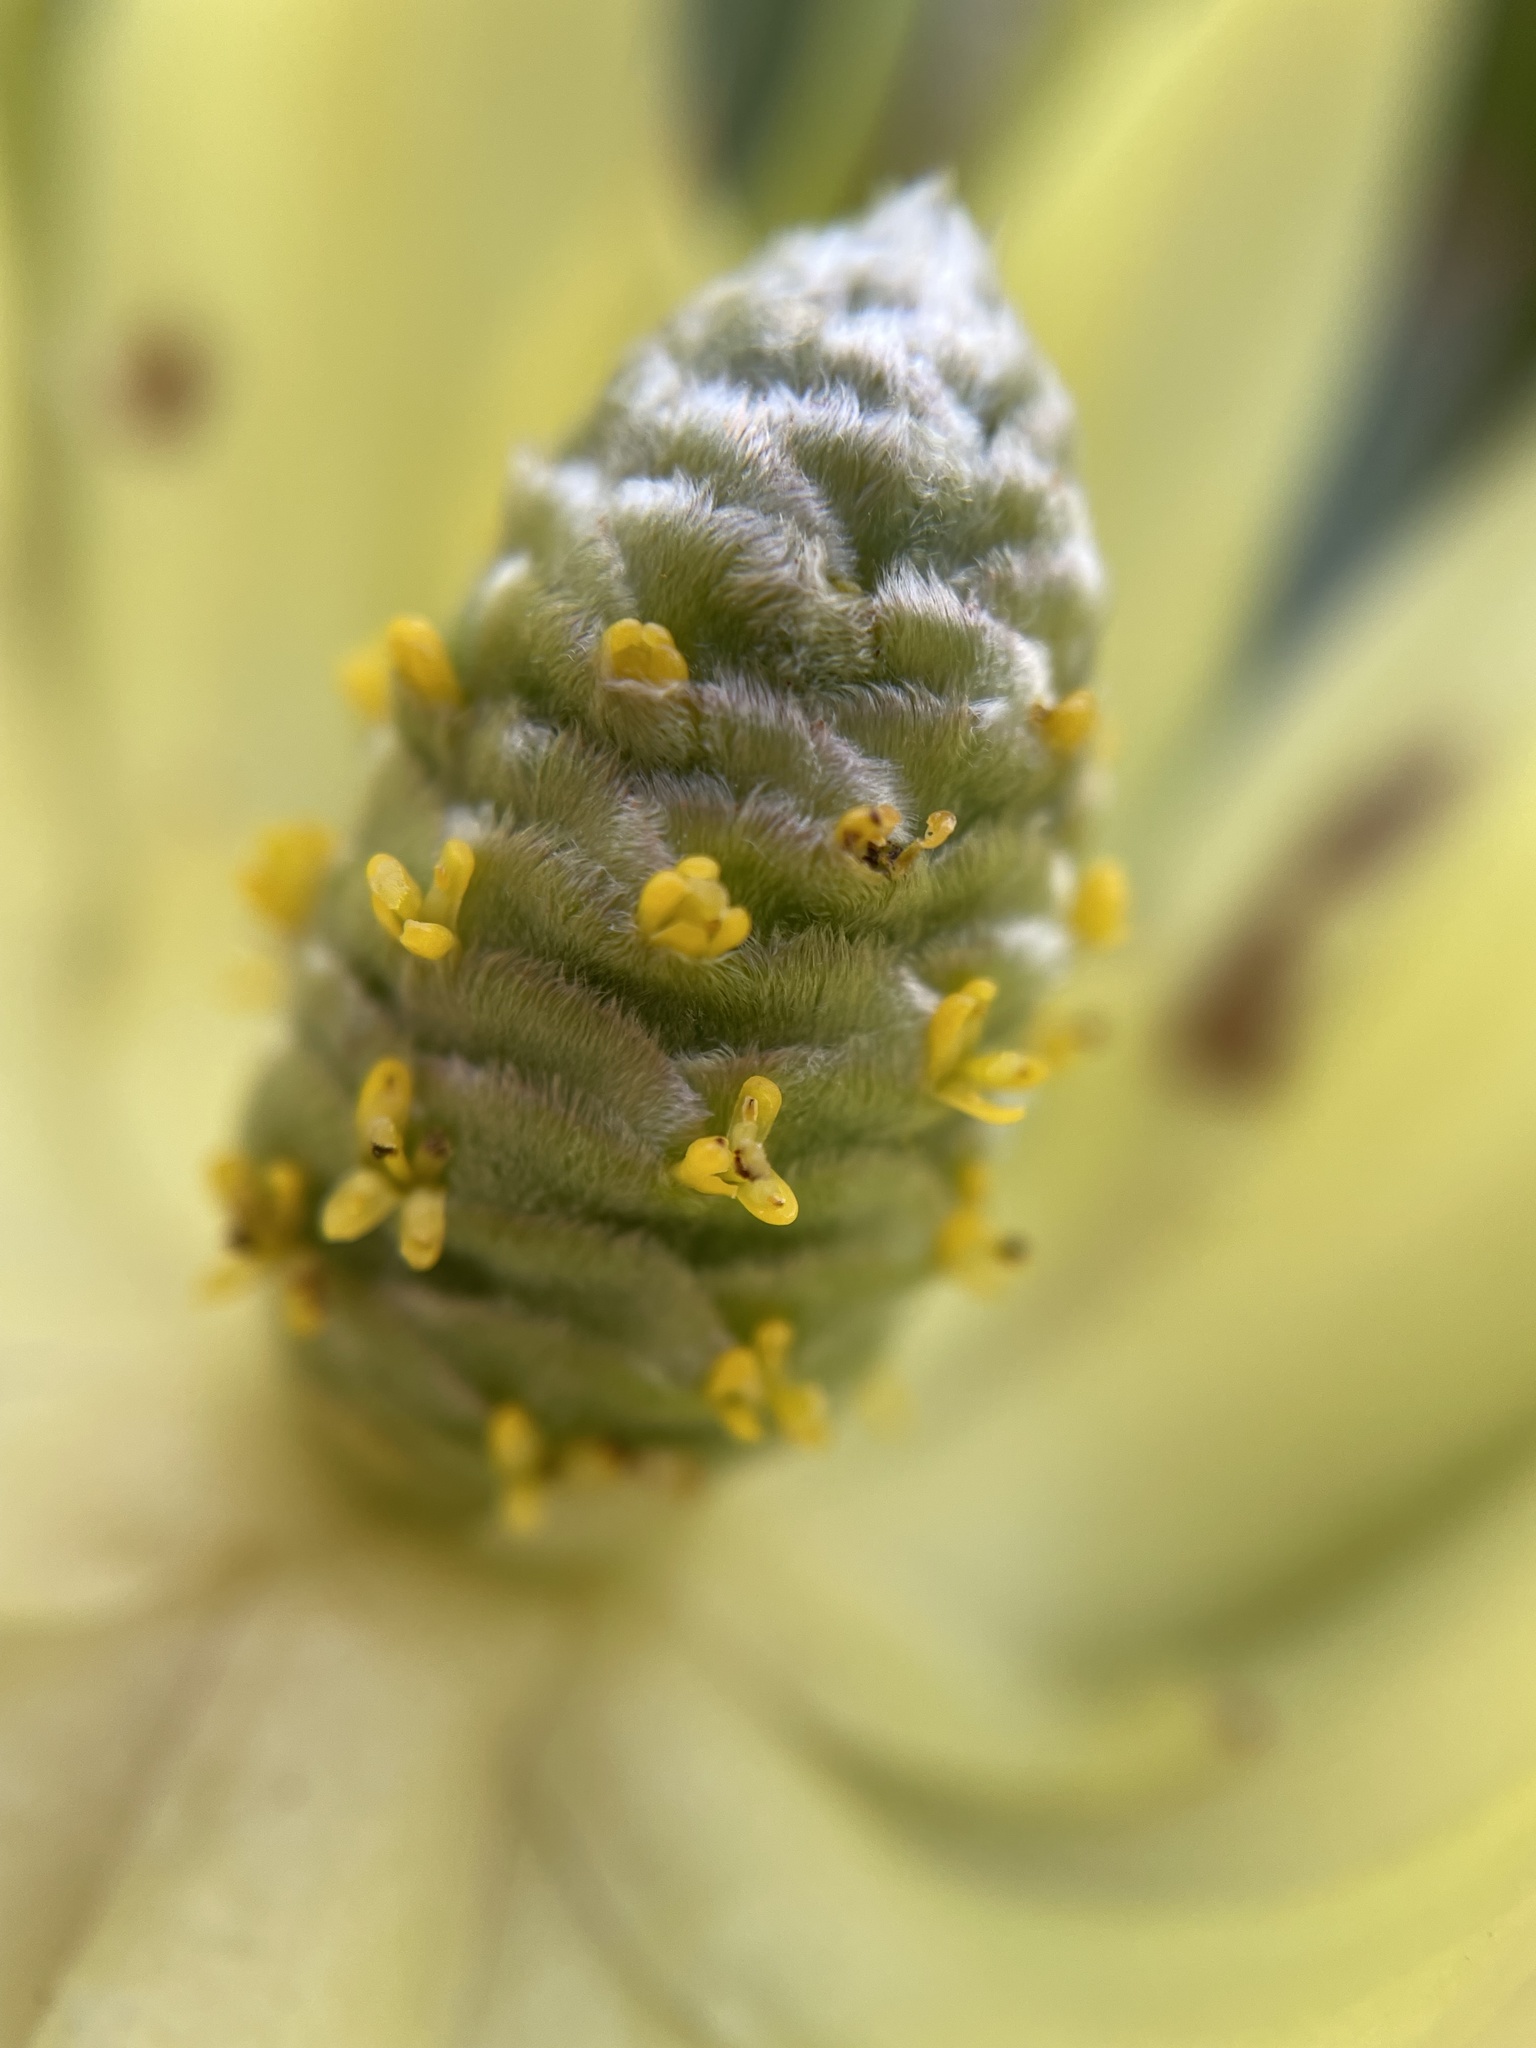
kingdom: Plantae
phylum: Tracheophyta
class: Magnoliopsida
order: Proteales
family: Proteaceae
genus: Leucadendron
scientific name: Leucadendron xanthoconus
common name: Sickle-leaf conebush
